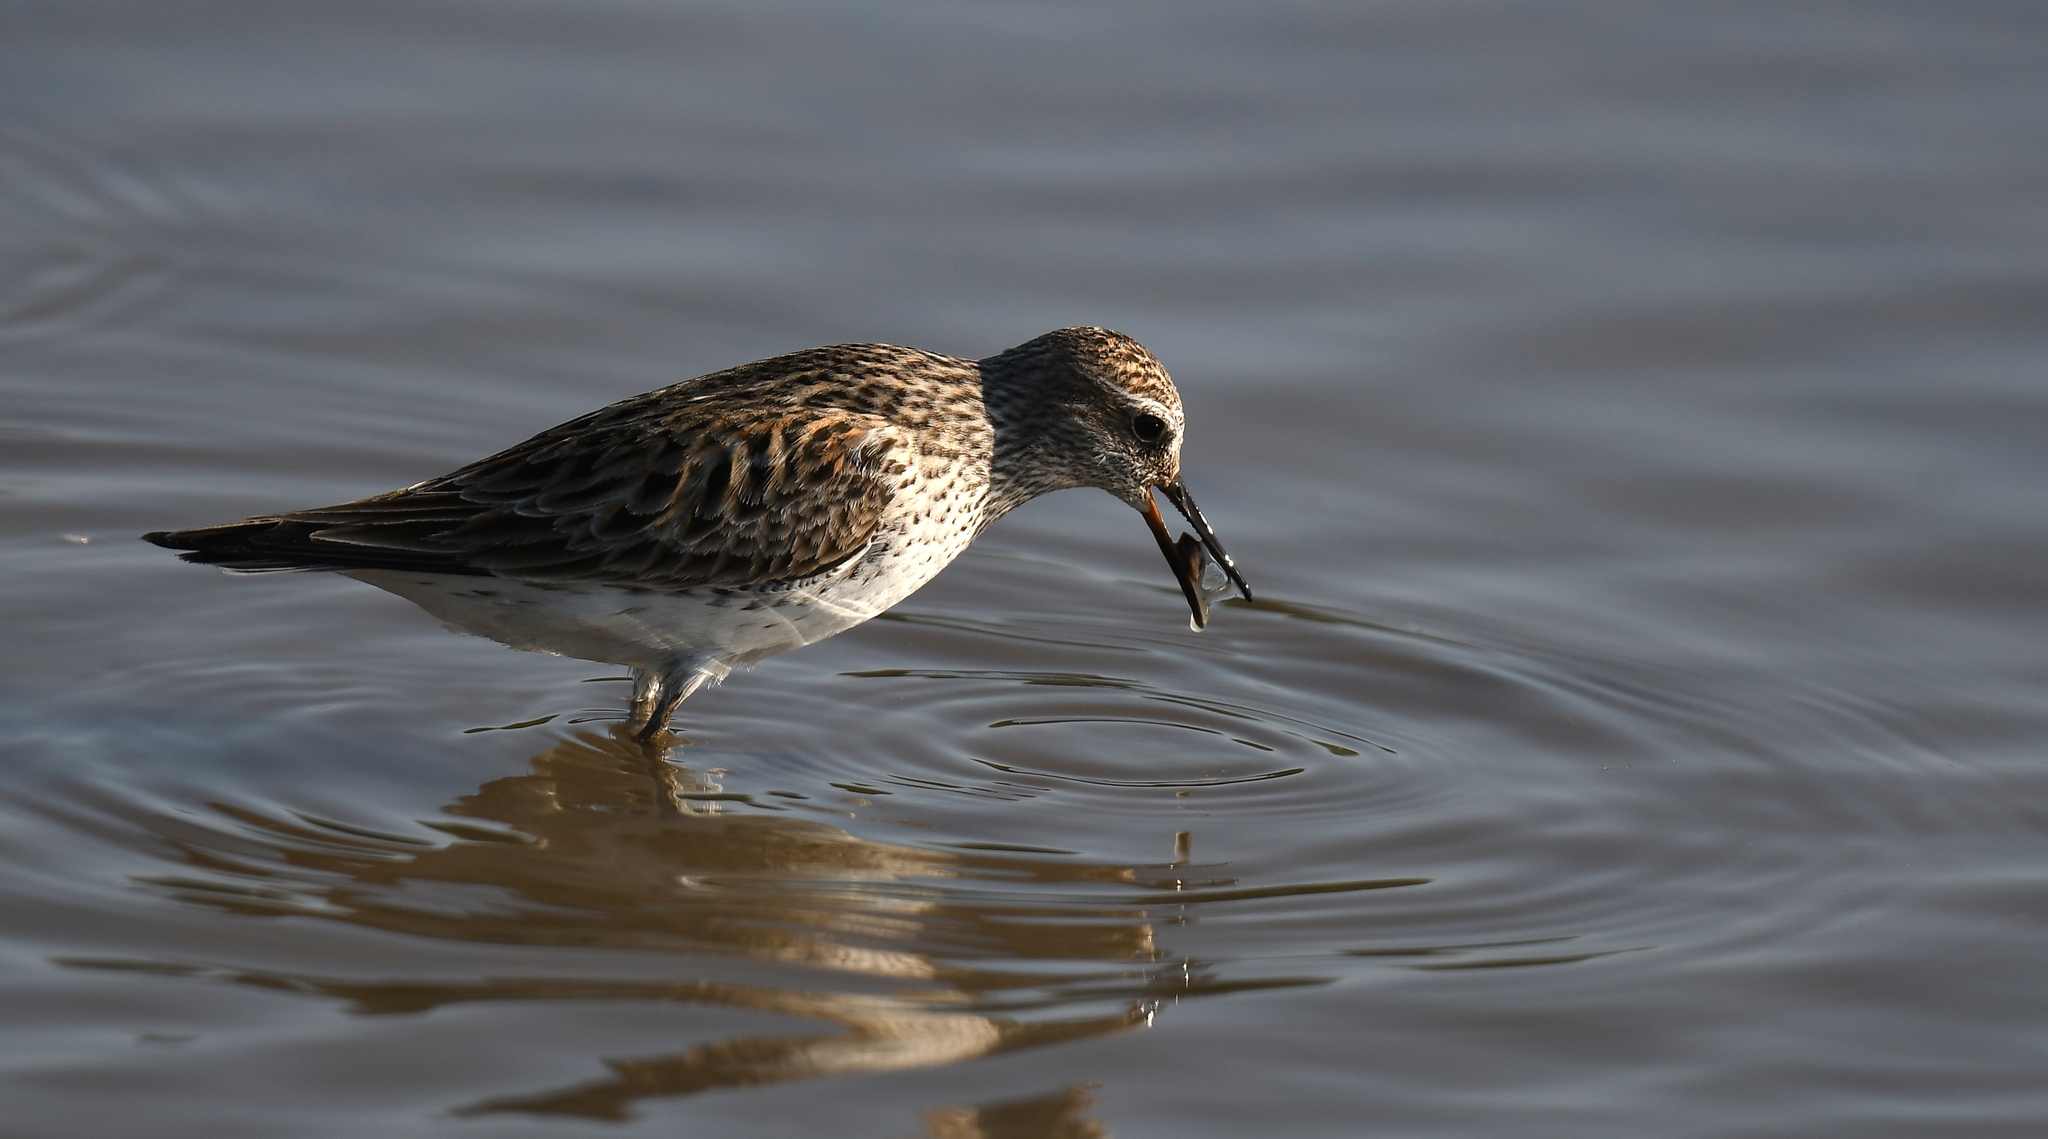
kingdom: Animalia
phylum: Chordata
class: Aves
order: Charadriiformes
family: Scolopacidae
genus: Calidris
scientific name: Calidris fuscicollis
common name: White-rumped sandpiper
